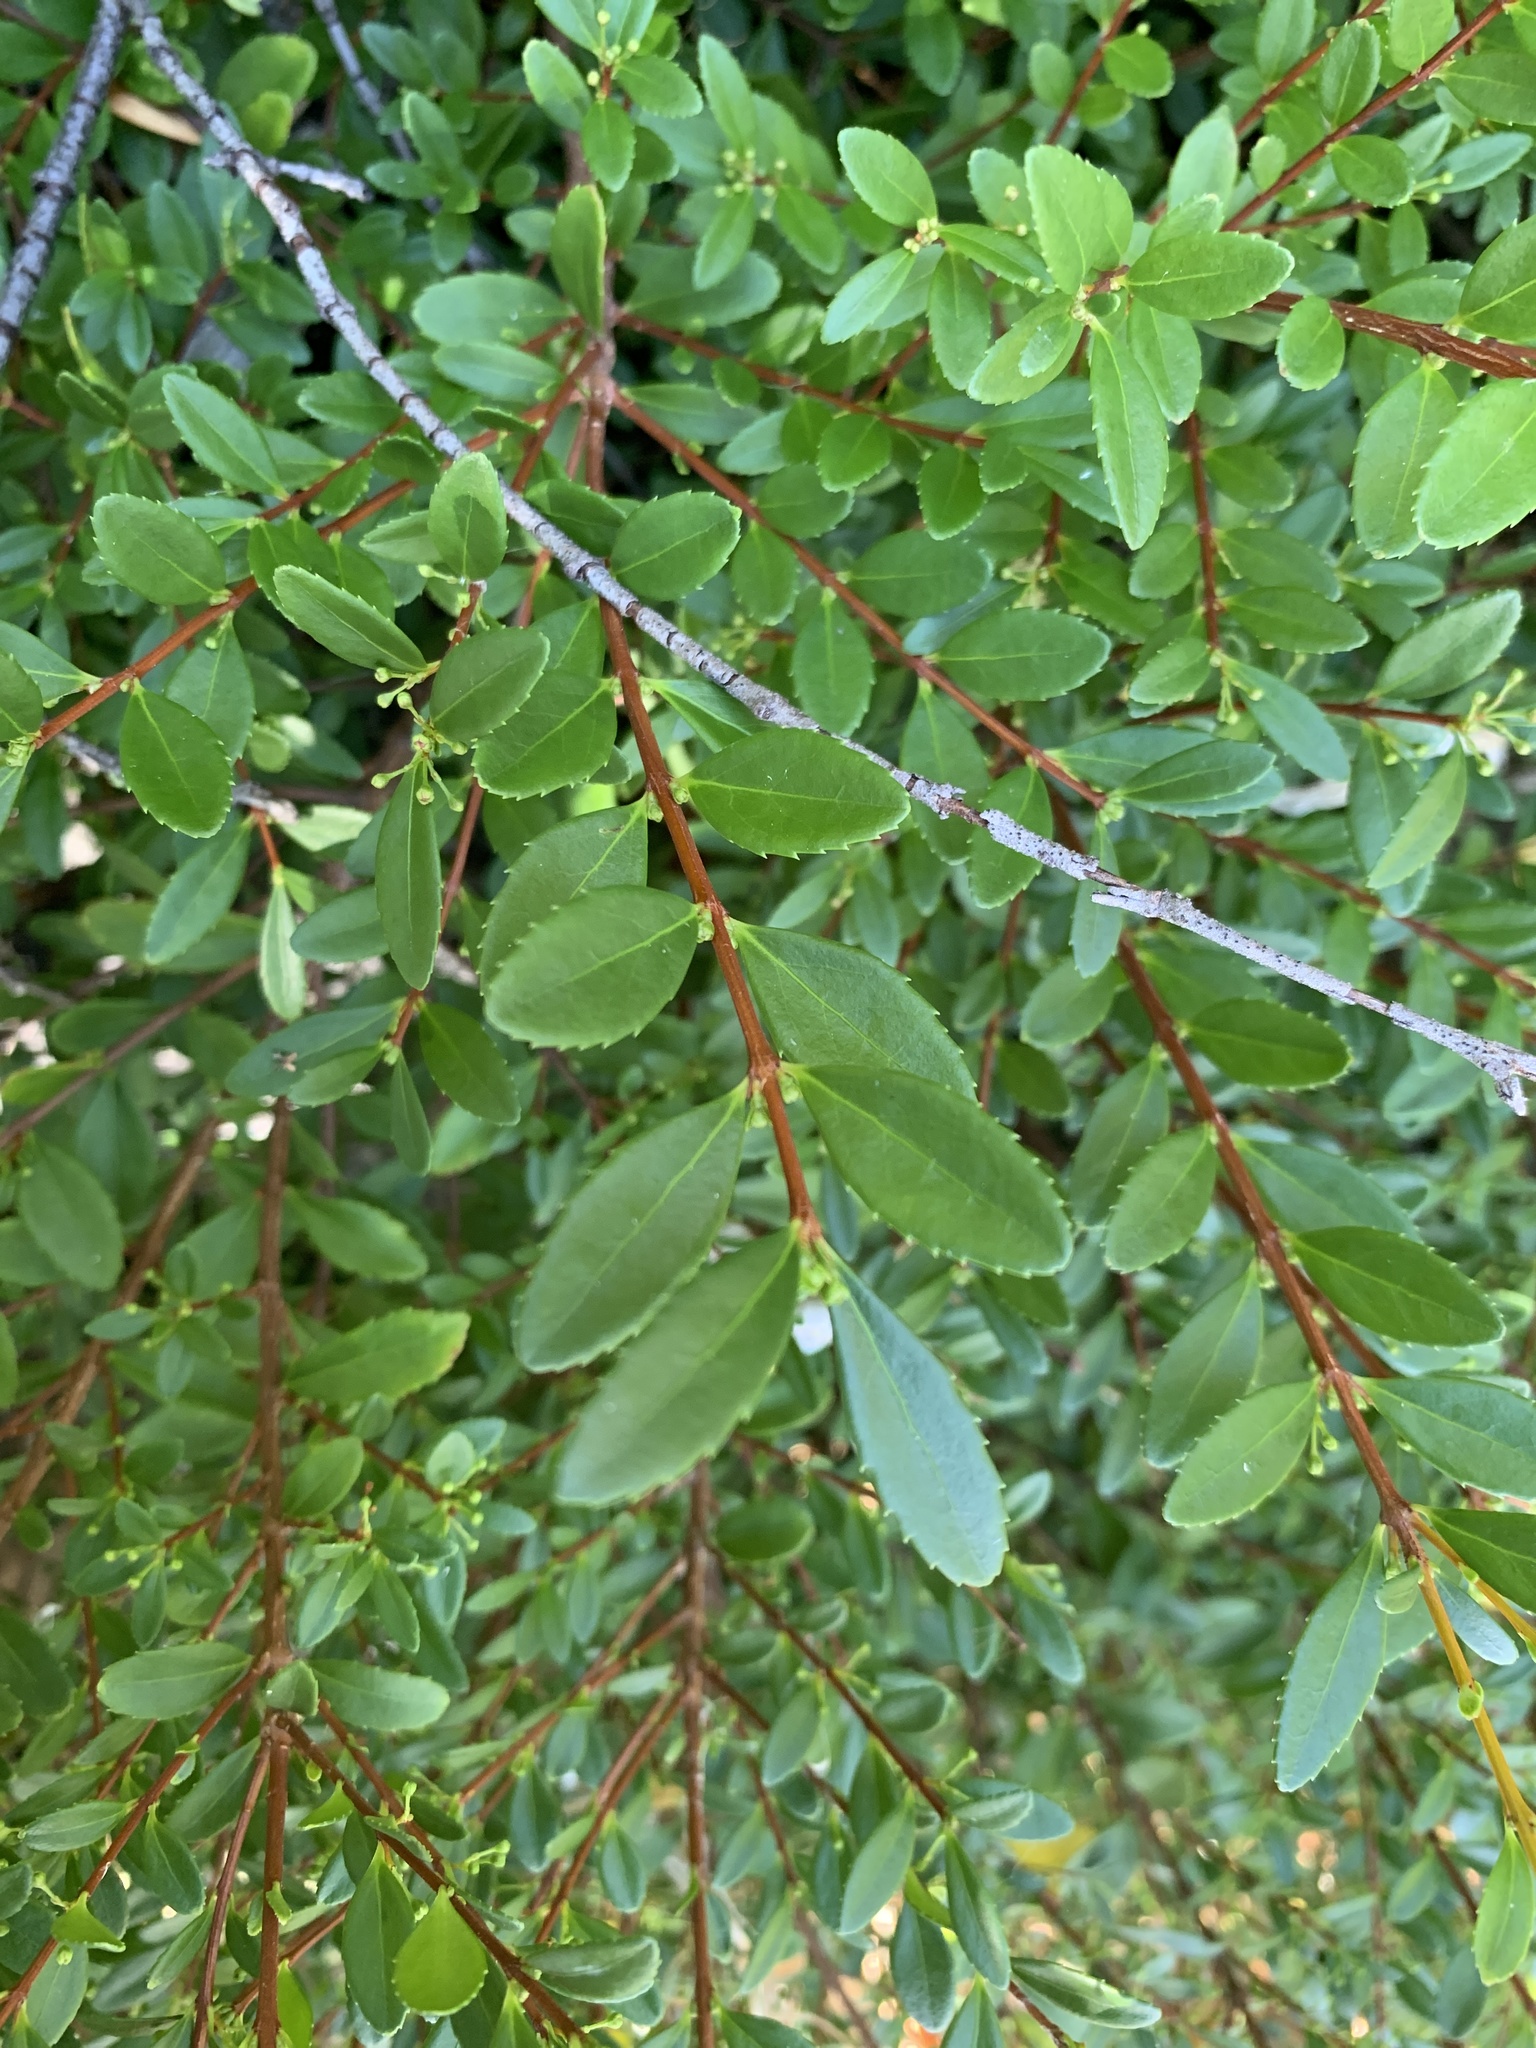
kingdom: Plantae
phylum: Tracheophyta
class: Magnoliopsida
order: Celastrales
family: Celastraceae
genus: Paxistima
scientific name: Paxistima myrsinites
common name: Mountain-lover
